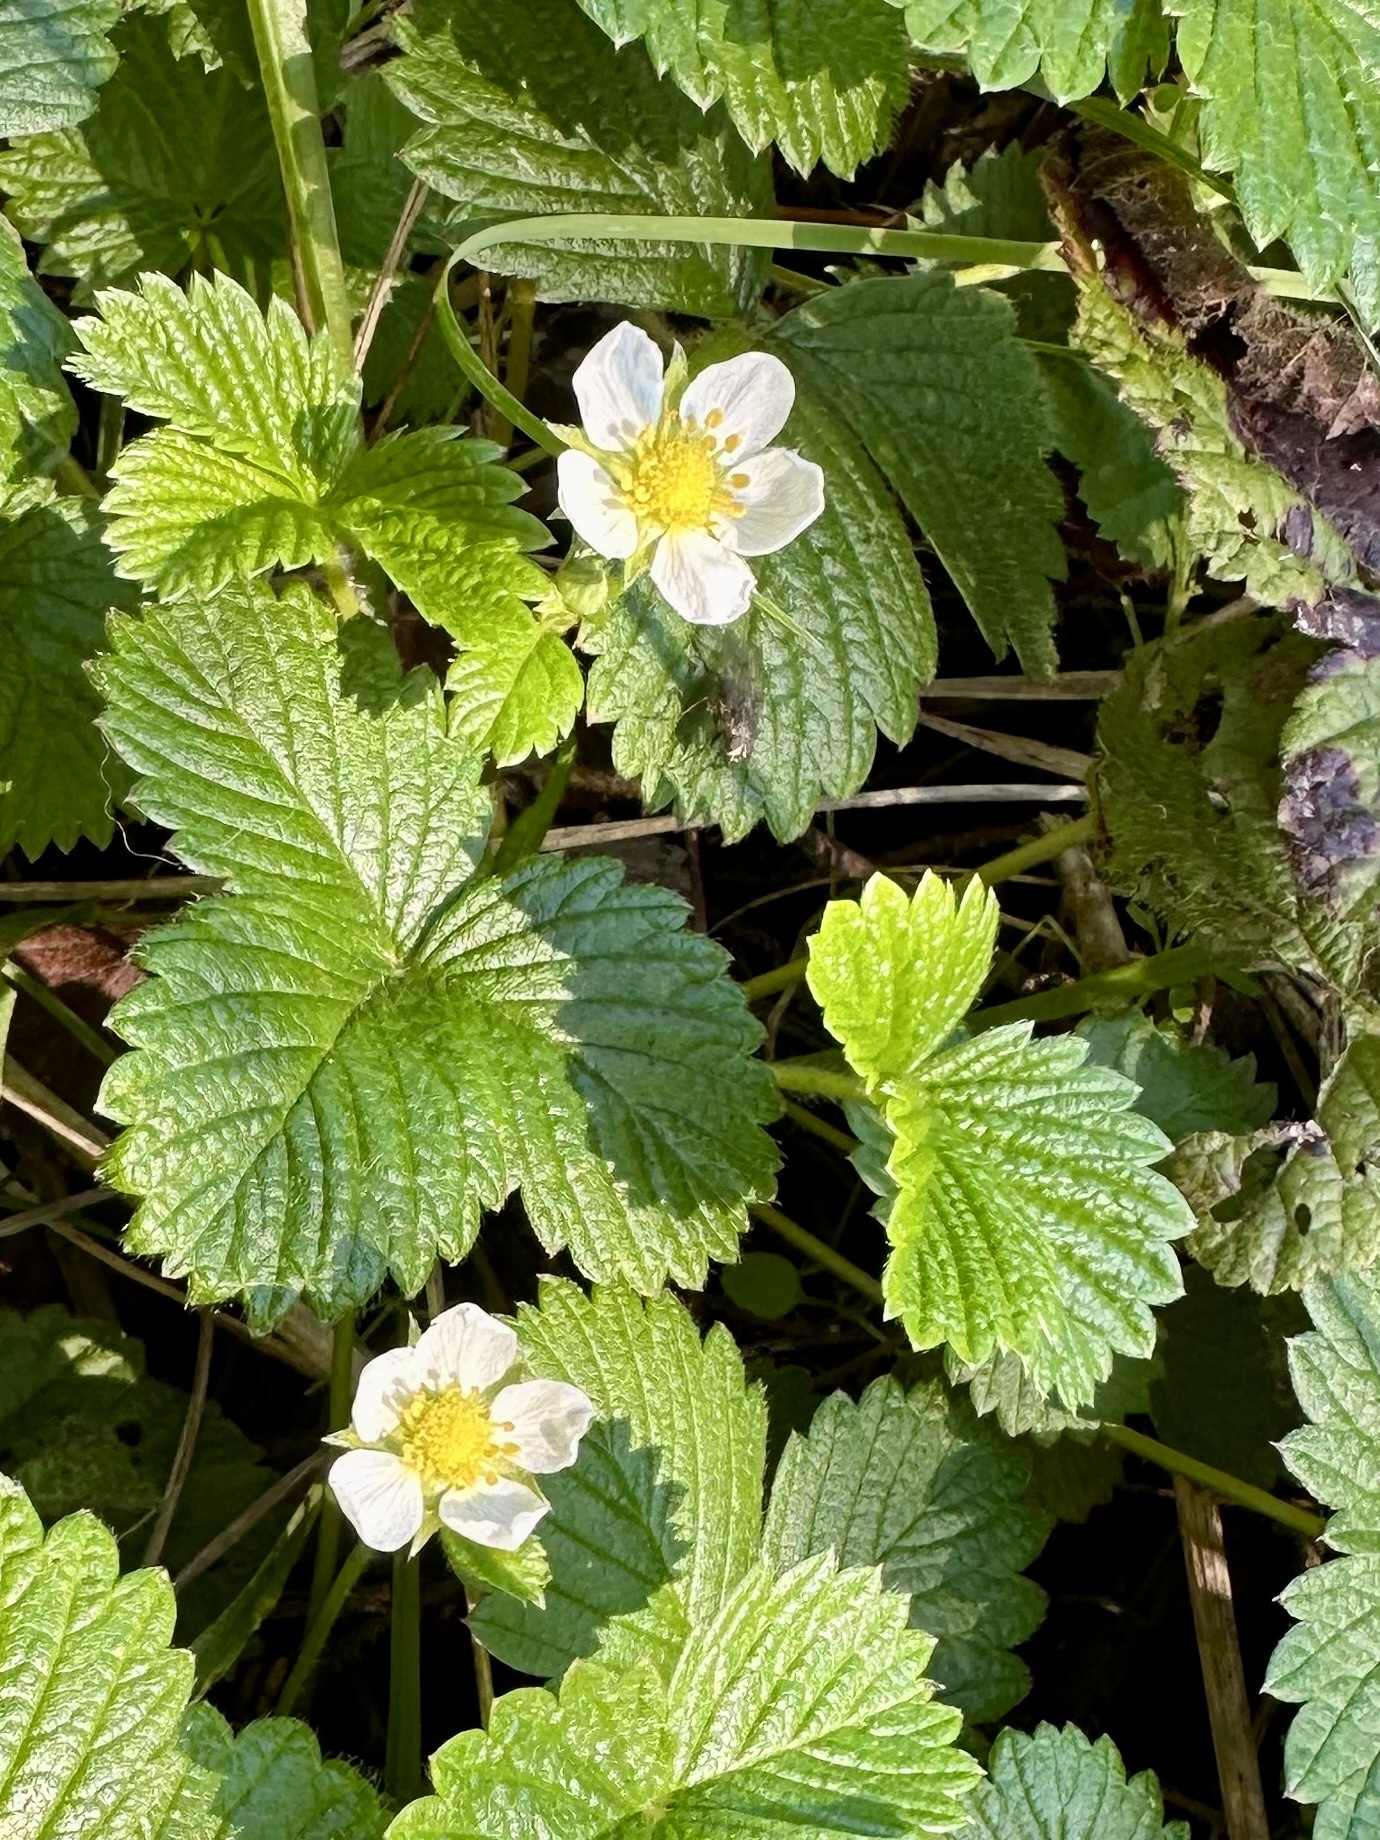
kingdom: Plantae
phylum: Tracheophyta
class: Magnoliopsida
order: Rosales
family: Rosaceae
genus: Fragaria
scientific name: Fragaria vesca
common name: Wild strawberry
